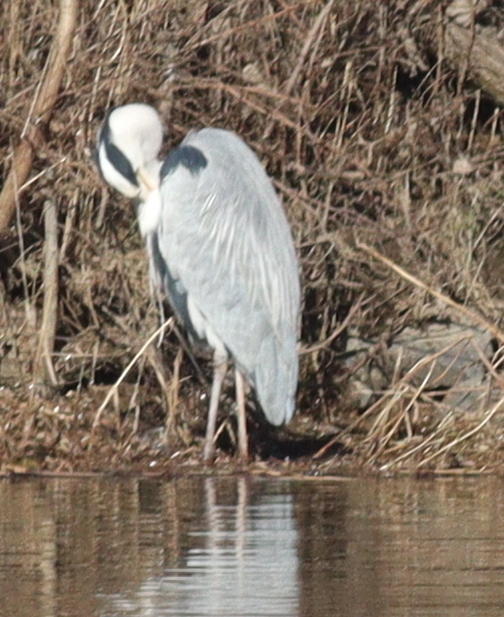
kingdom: Animalia
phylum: Chordata
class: Aves
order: Pelecaniformes
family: Ardeidae
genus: Ardea
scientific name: Ardea cinerea
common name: Grey heron
